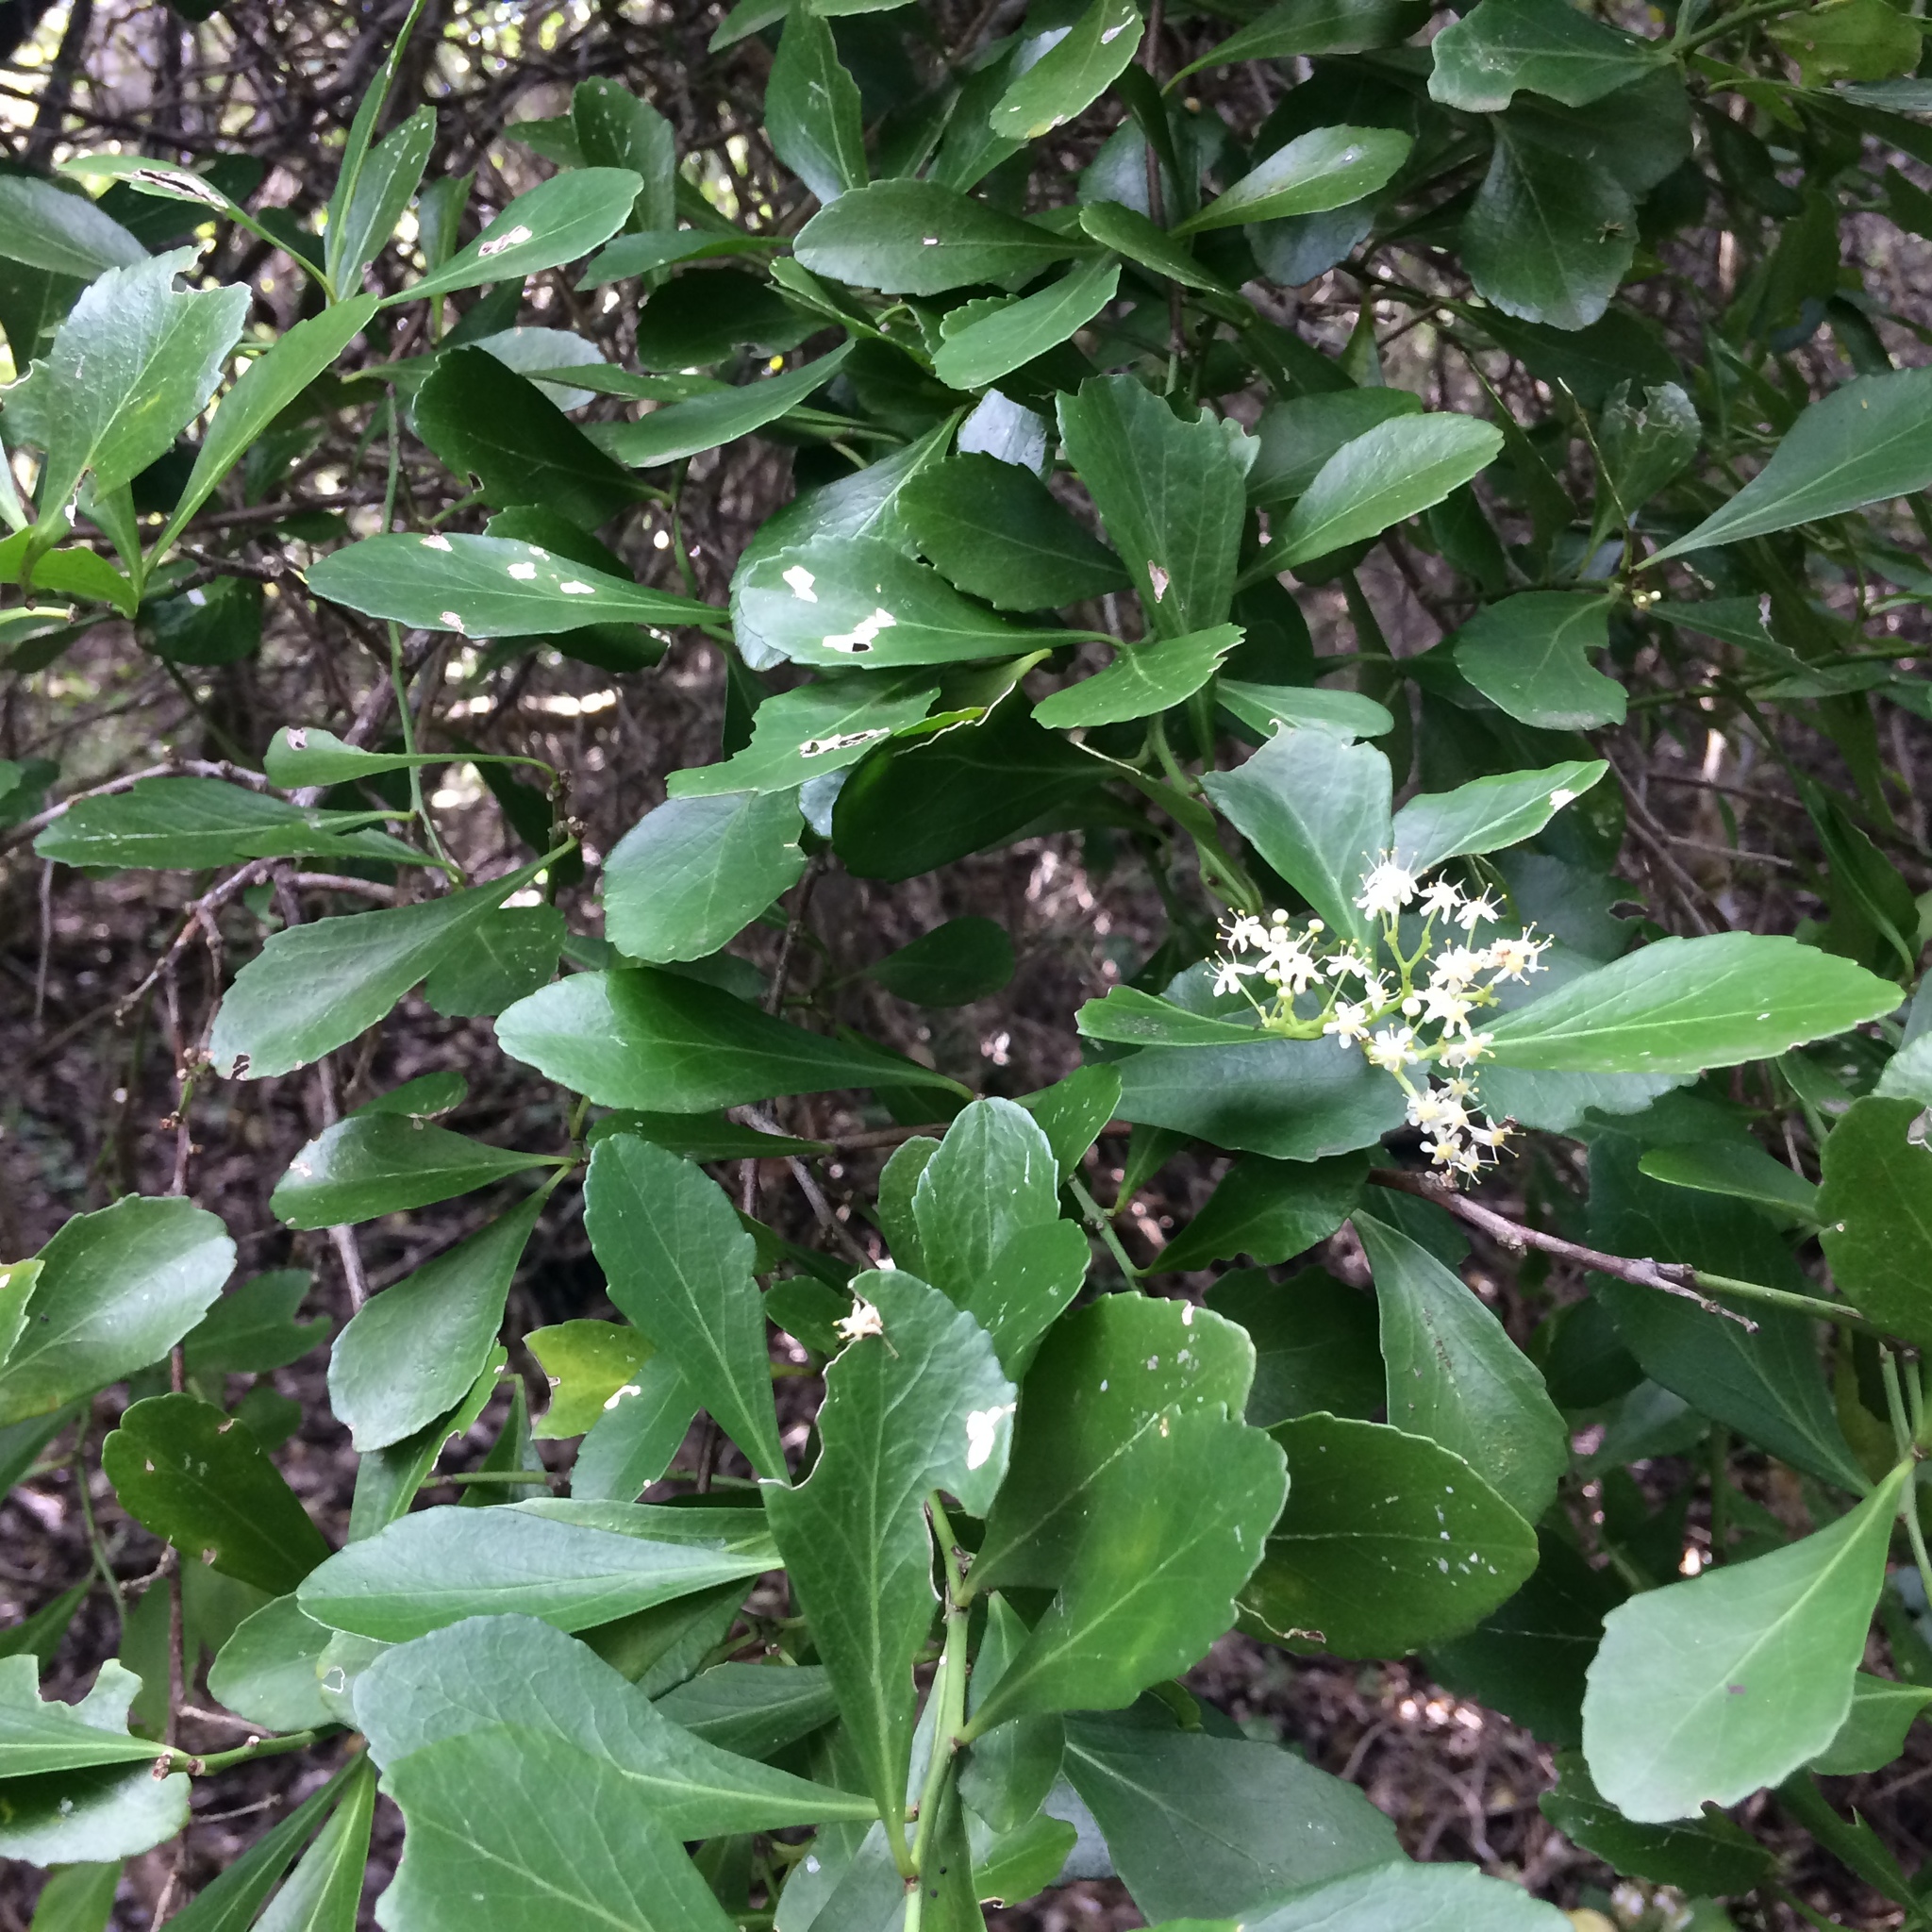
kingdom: Plantae
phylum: Tracheophyta
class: Magnoliopsida
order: Celastrales
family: Celastraceae
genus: Gymnosporia
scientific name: Gymnosporia nemorosa
